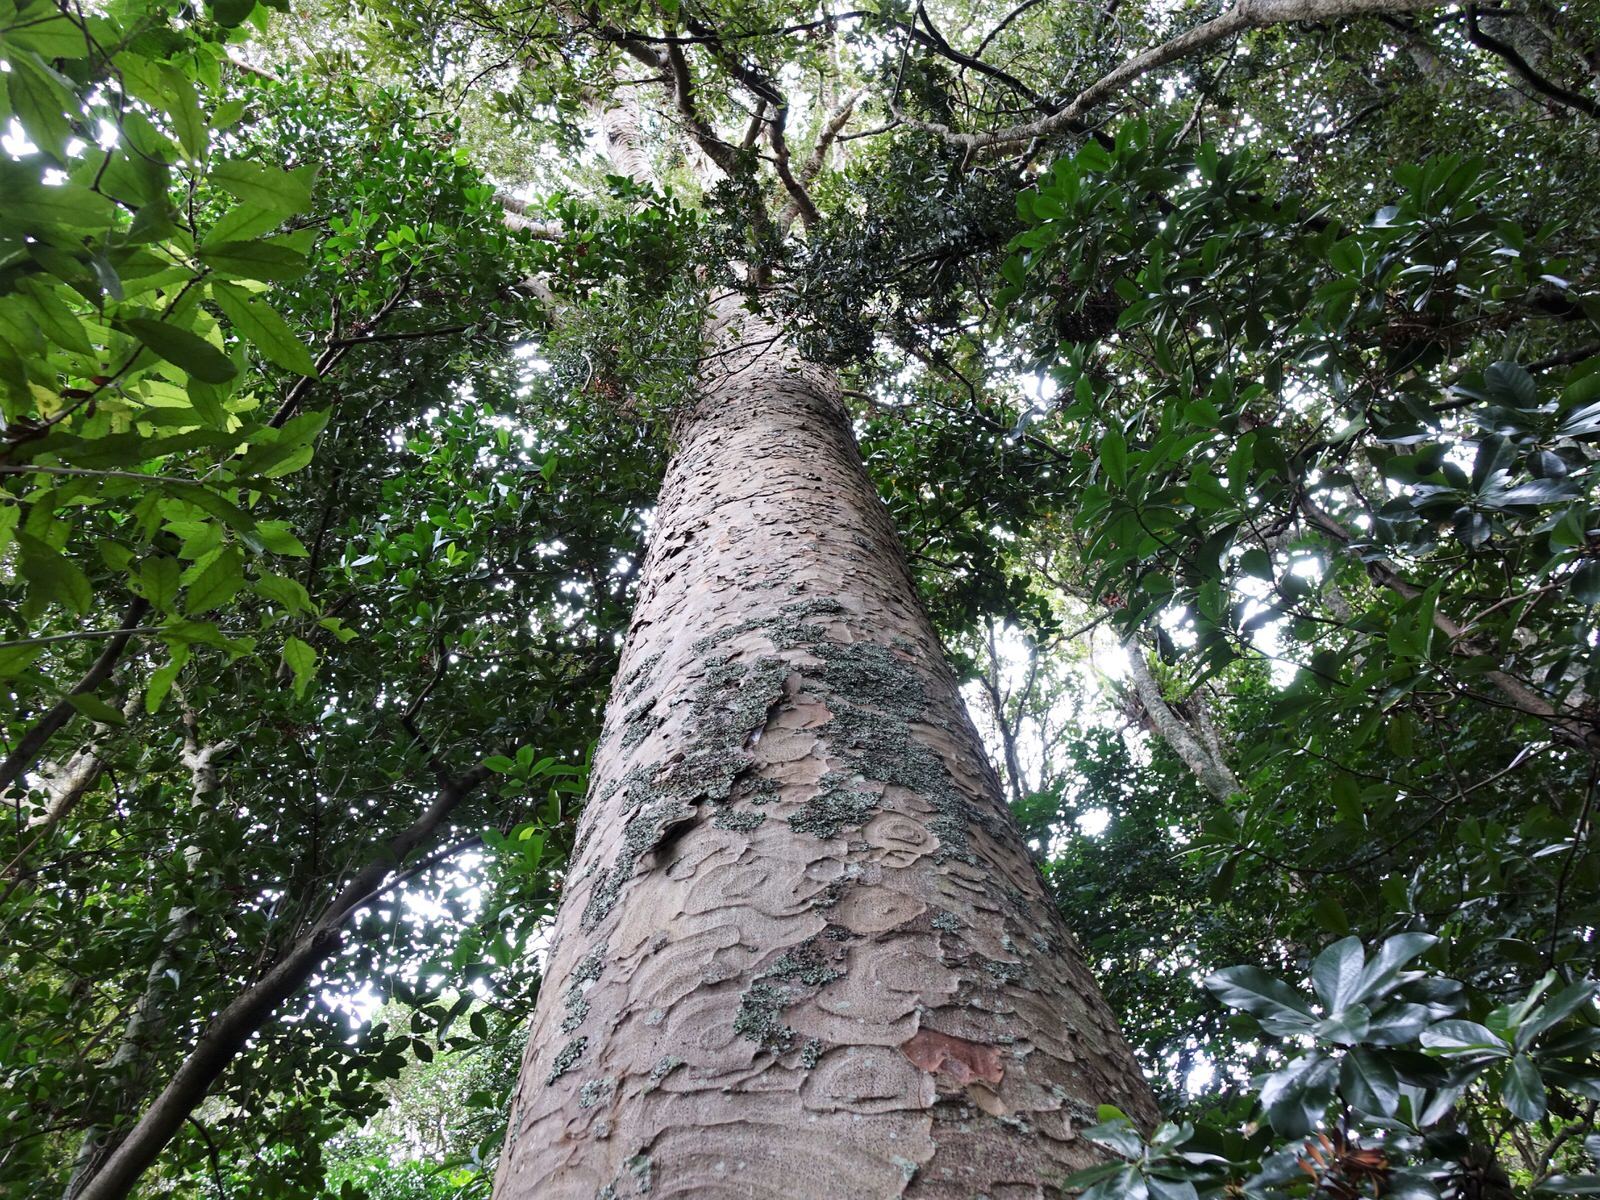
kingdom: Plantae
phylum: Tracheophyta
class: Pinopsida
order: Pinales
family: Araucariaceae
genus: Agathis
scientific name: Agathis australis
